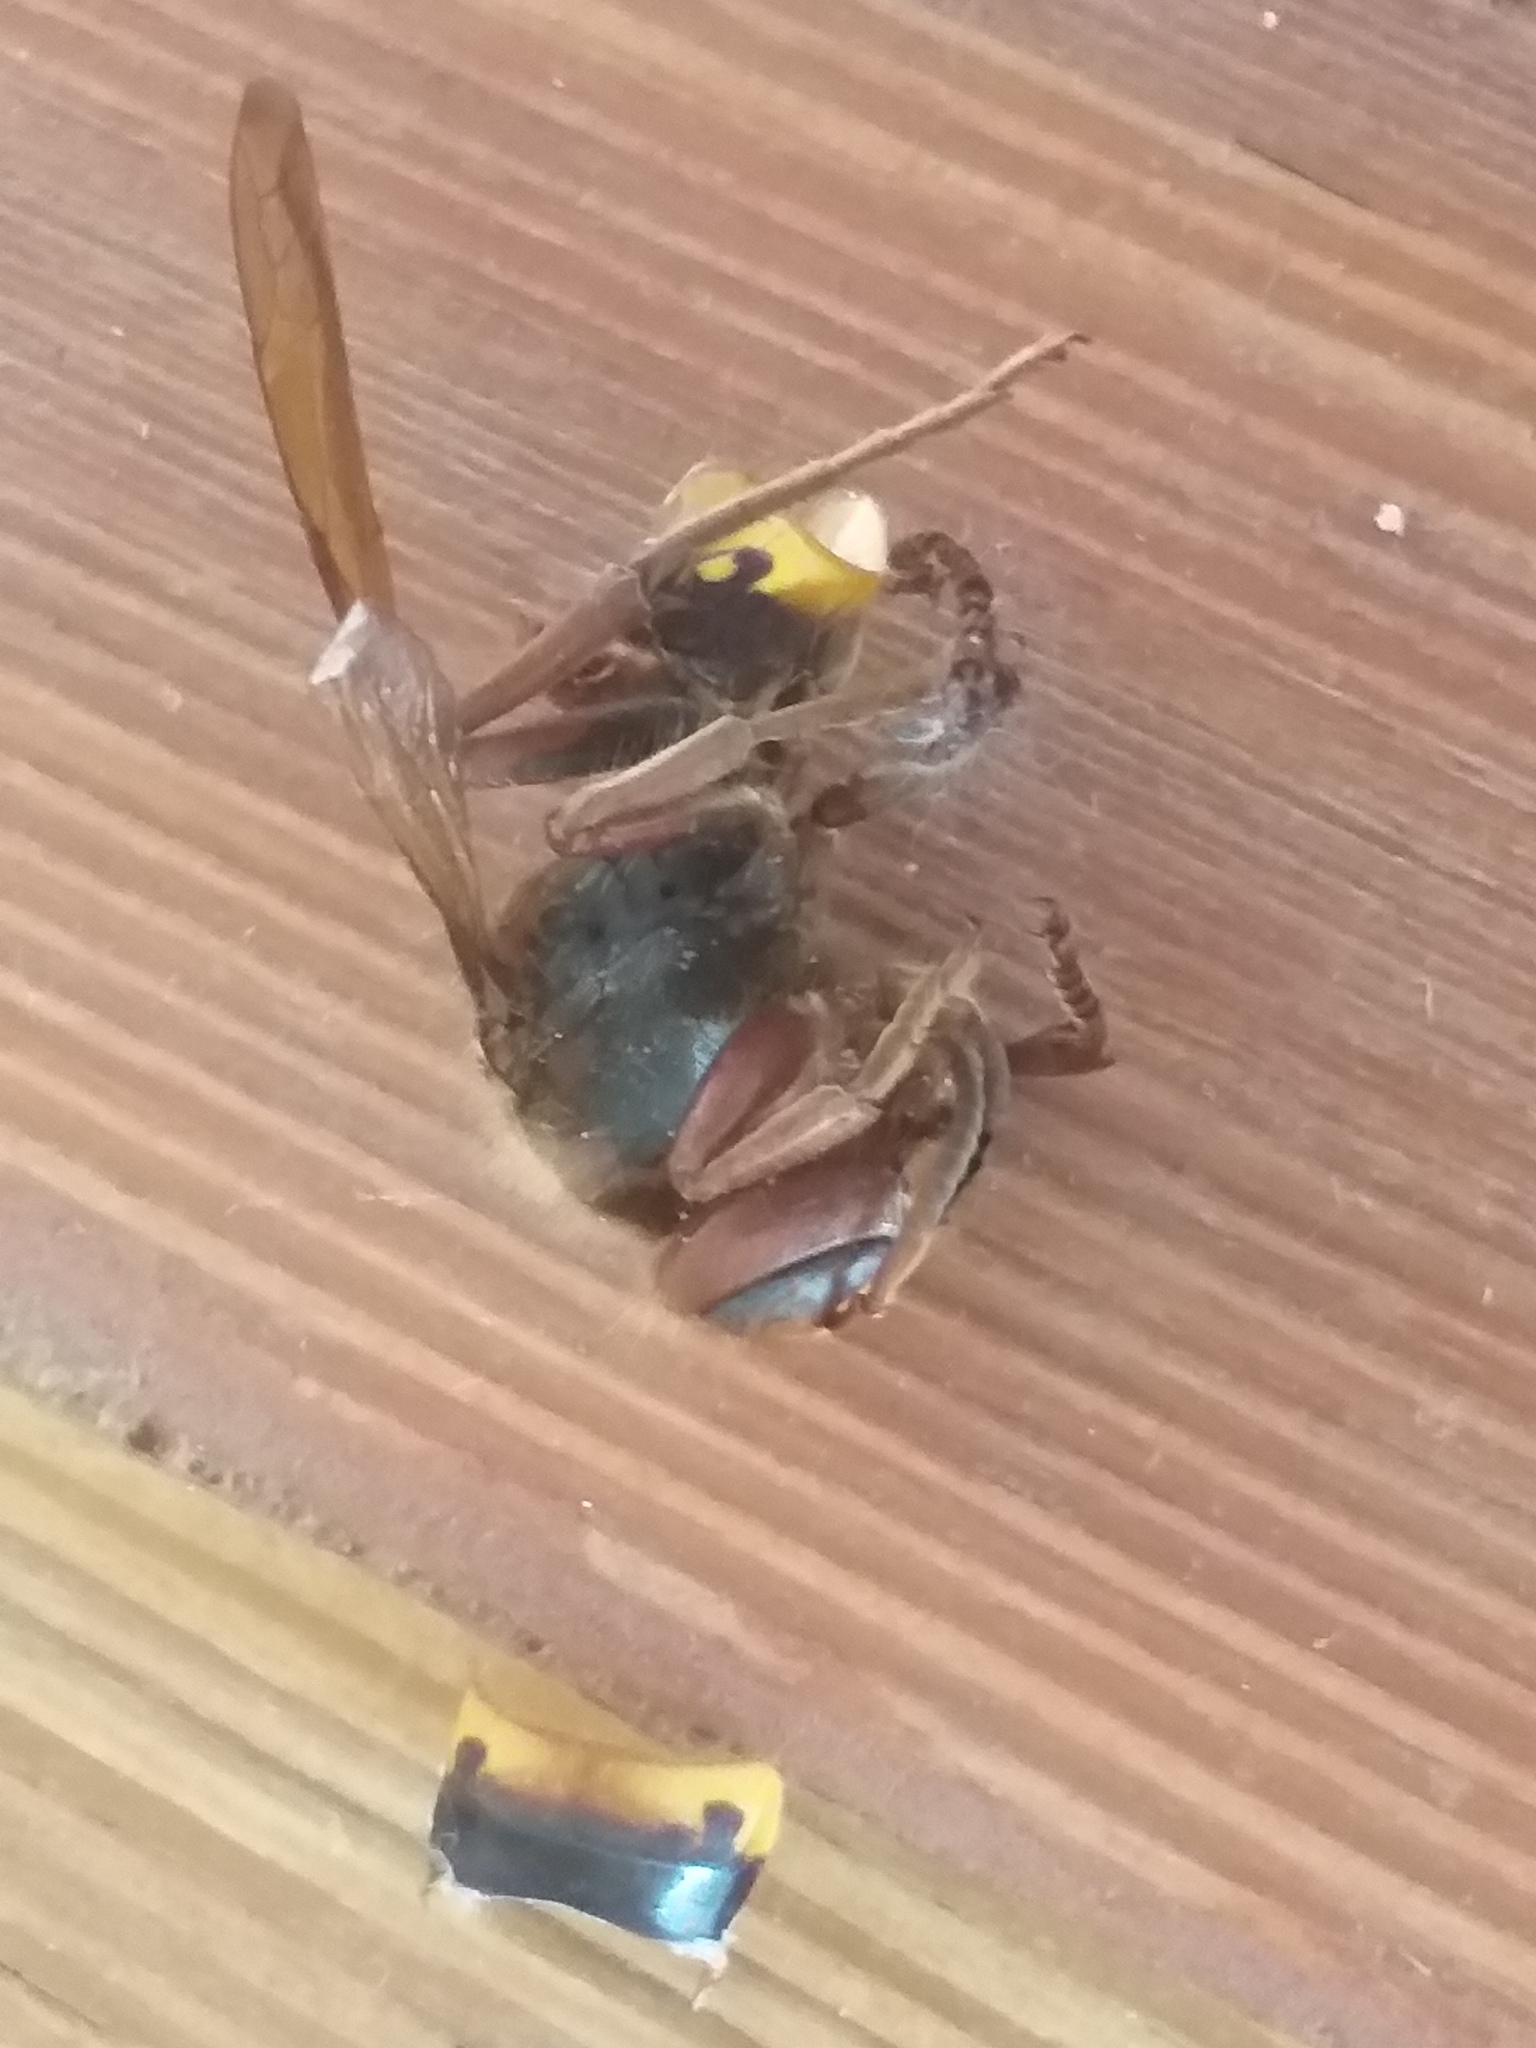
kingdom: Animalia
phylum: Arthropoda
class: Insecta
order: Hymenoptera
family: Vespidae
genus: Vespa
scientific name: Vespa crabro
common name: Hornet
